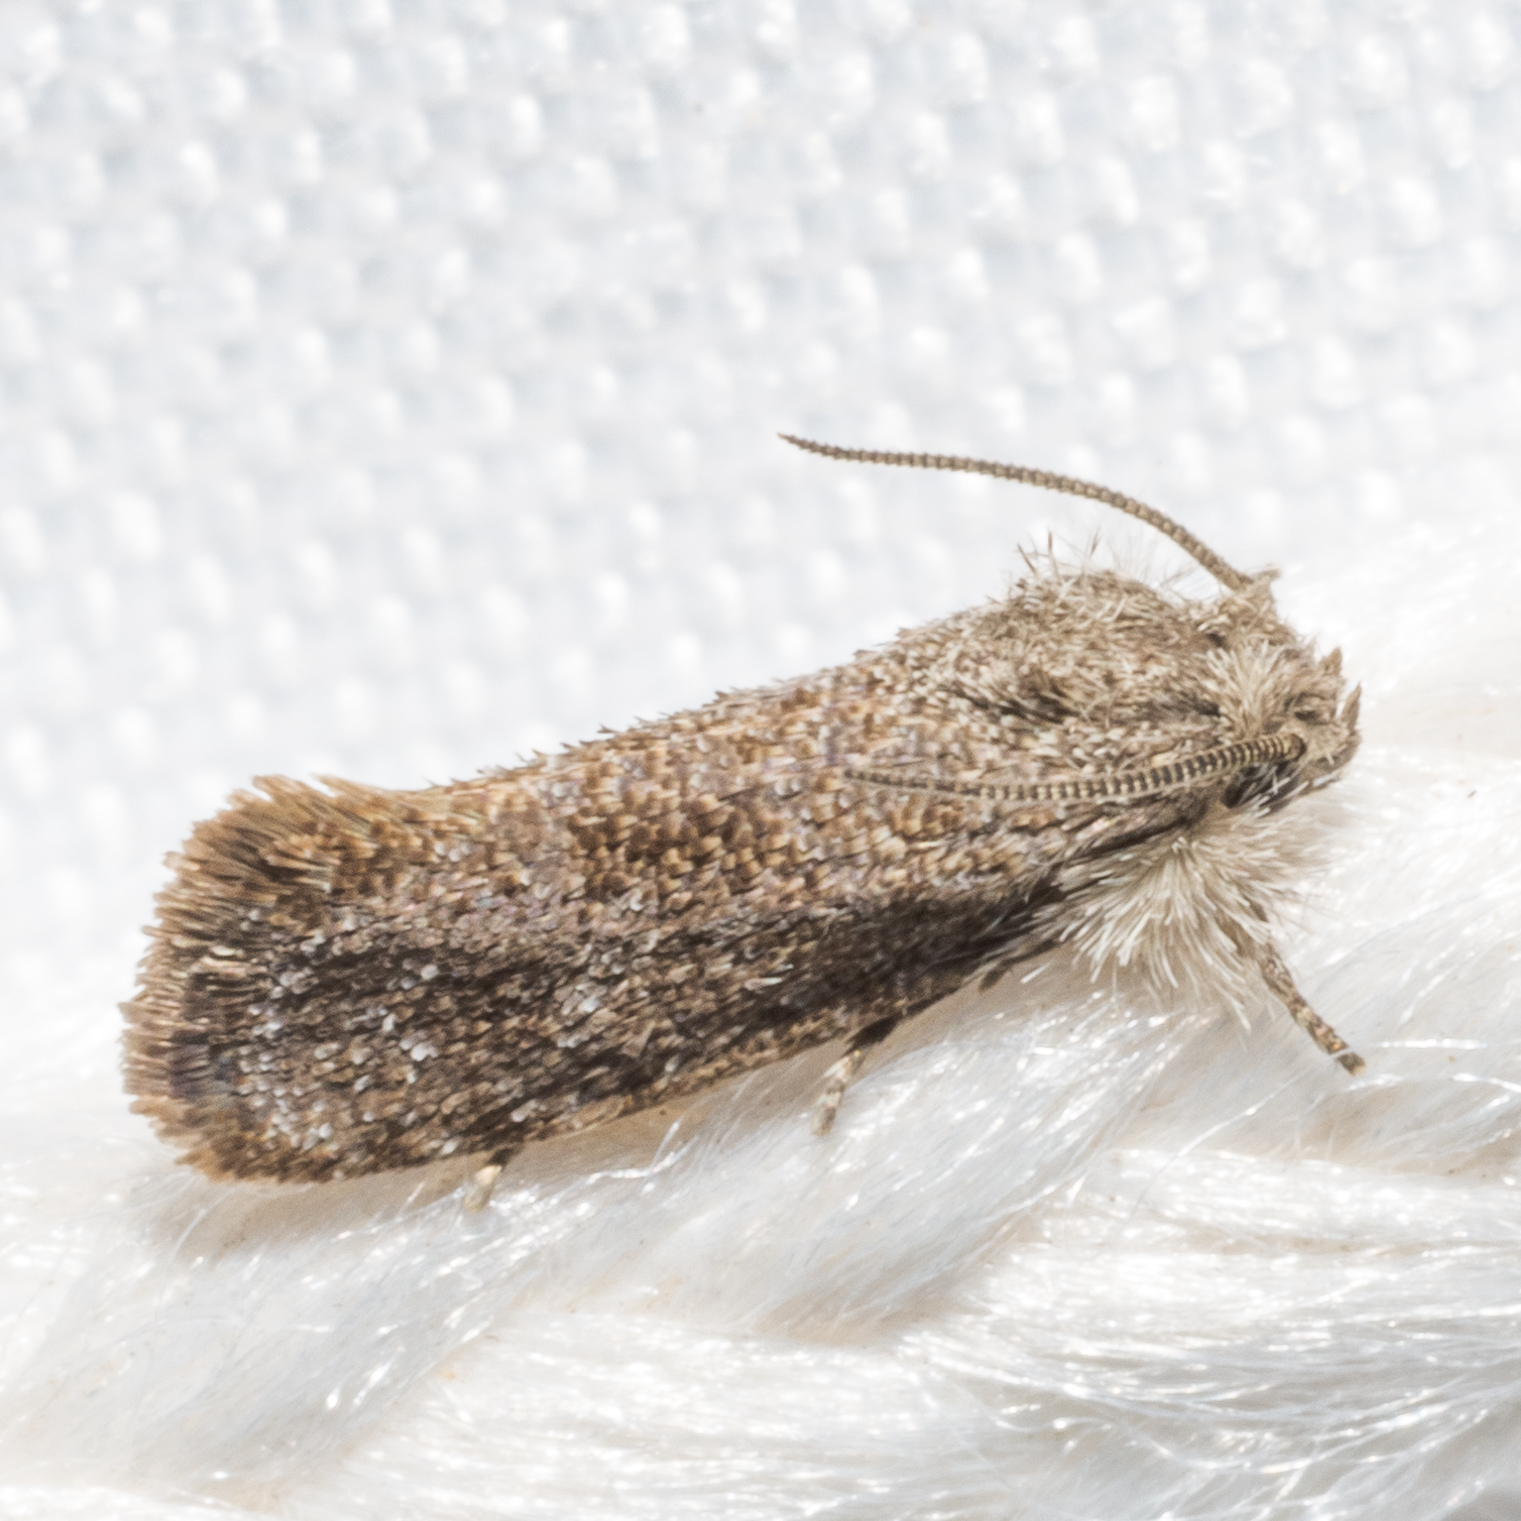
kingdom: Animalia
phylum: Arthropoda
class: Insecta
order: Lepidoptera
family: Tineidae
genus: Acrolophus
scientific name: Acrolophus heppneri
